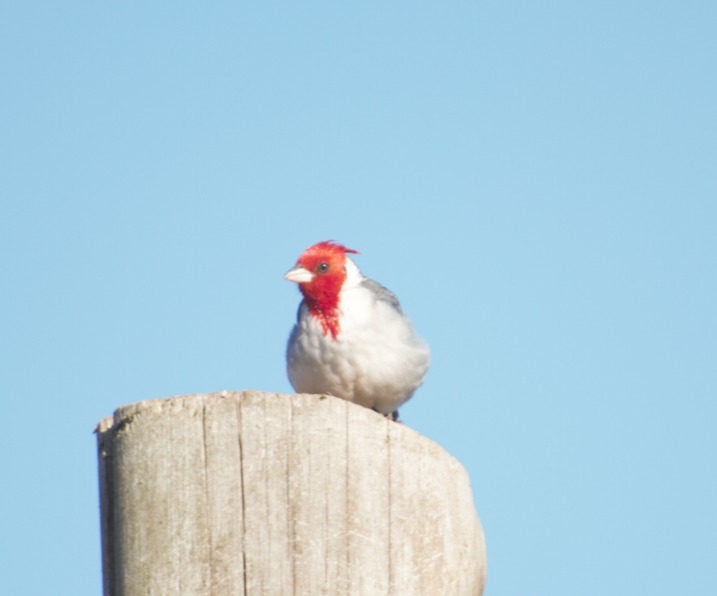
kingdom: Animalia
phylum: Chordata
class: Aves
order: Passeriformes
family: Thraupidae
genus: Paroaria
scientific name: Paroaria coronata
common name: Red-crested cardinal
